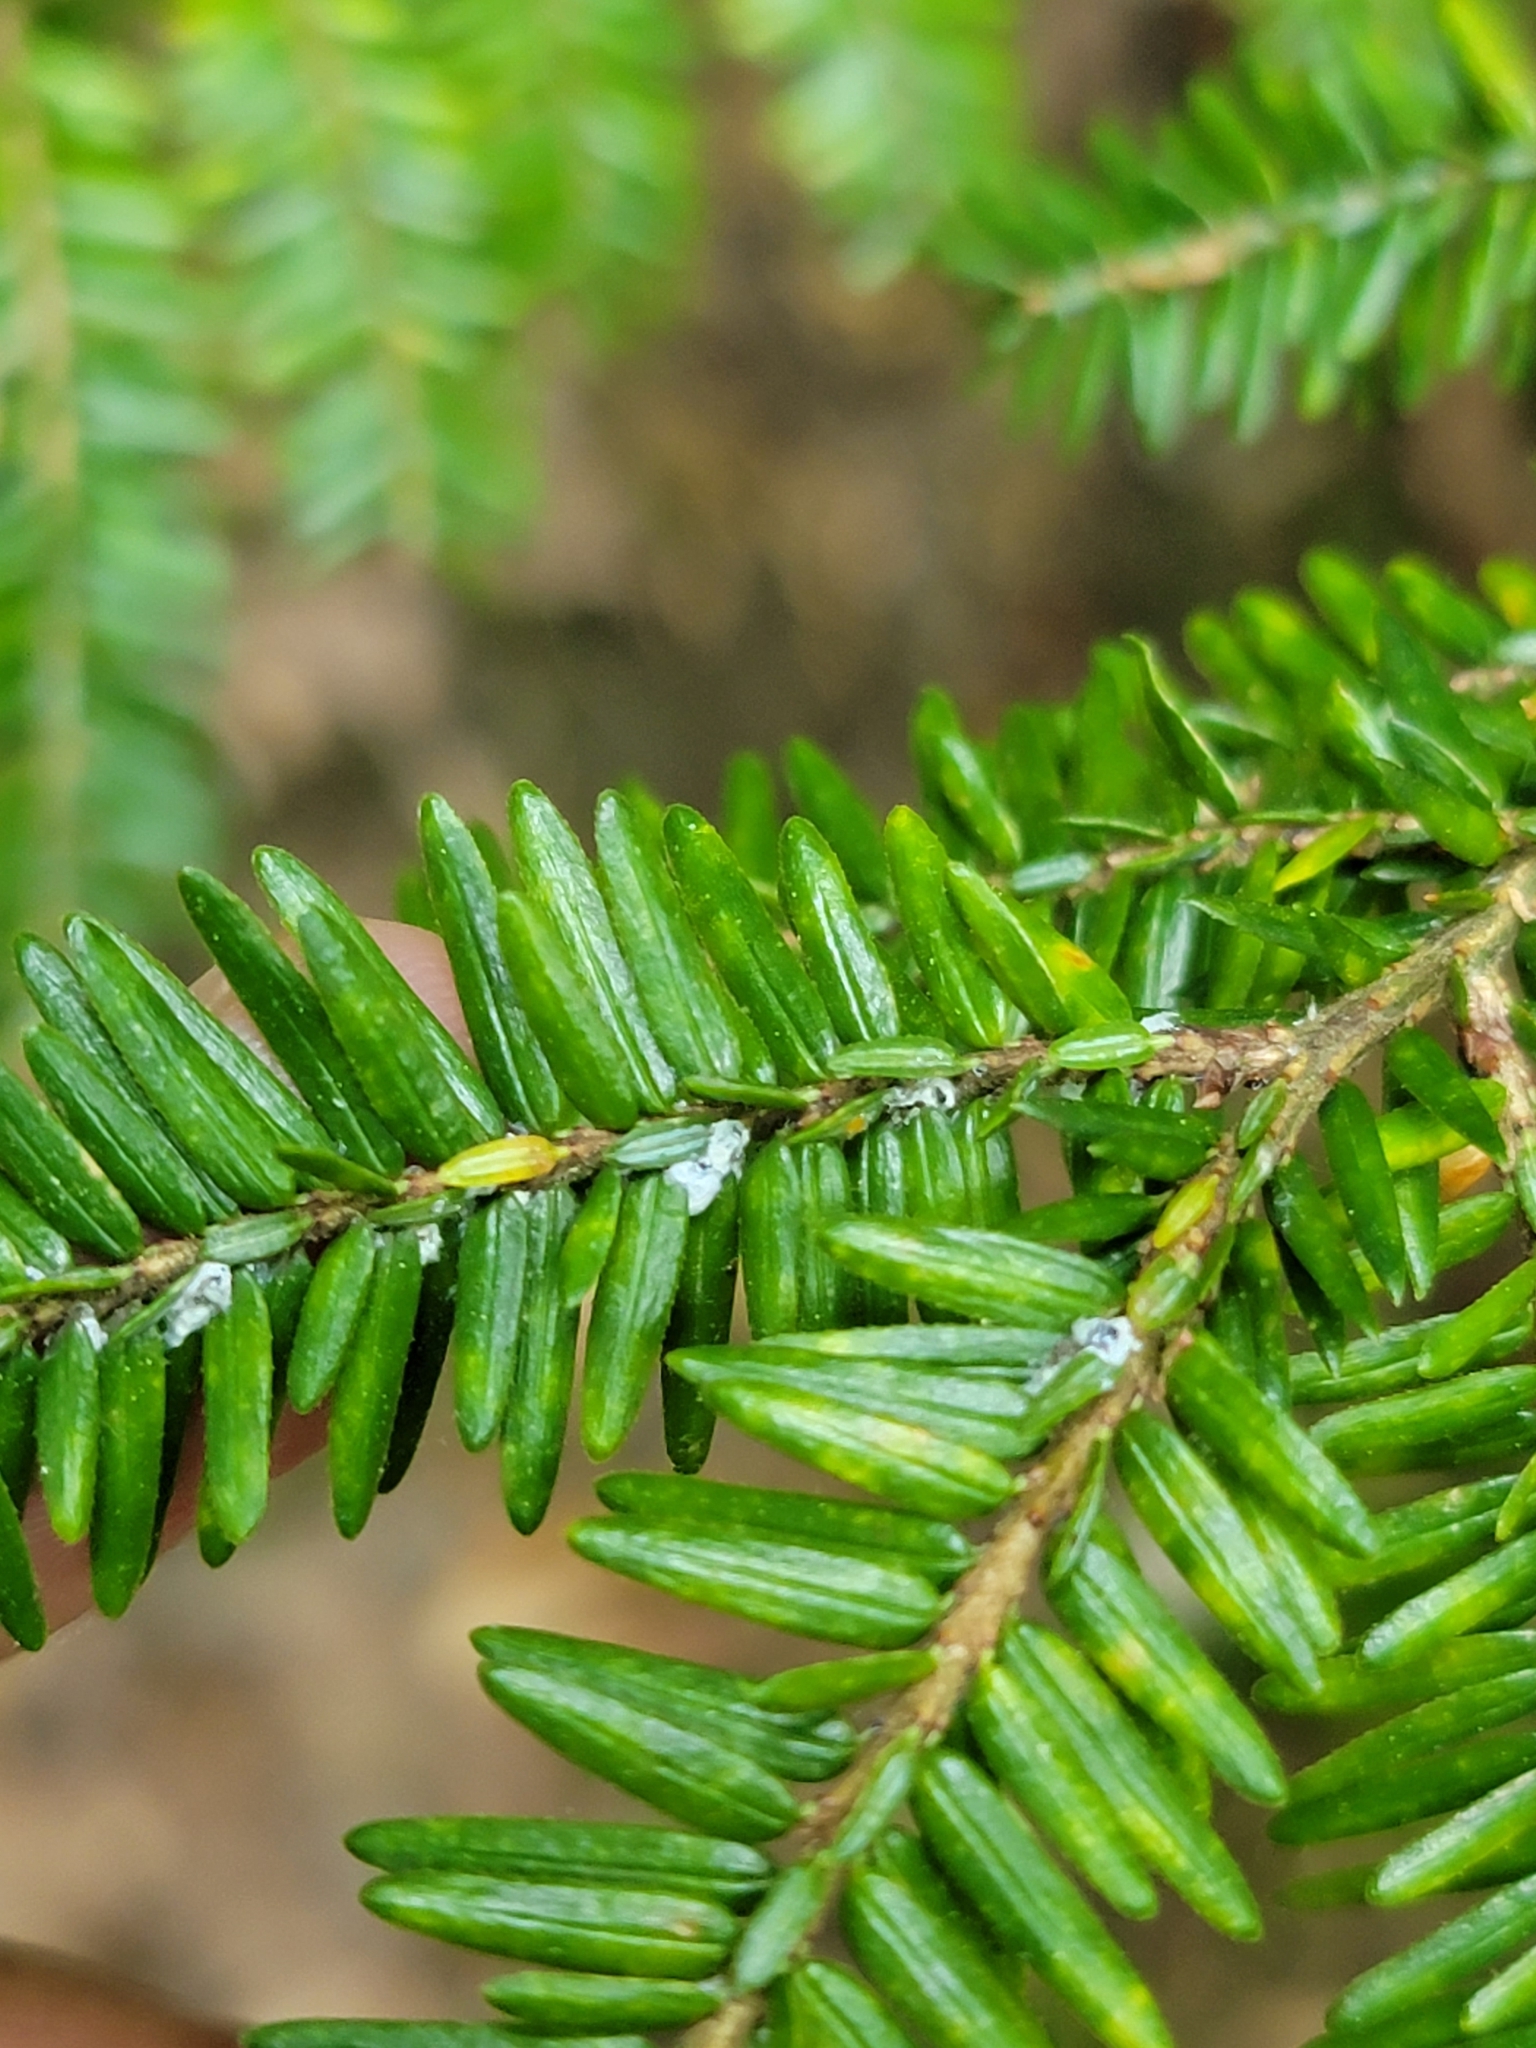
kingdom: Animalia
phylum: Arthropoda
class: Insecta
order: Hemiptera
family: Adelgidae
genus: Adelges
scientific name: Adelges tsugae
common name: Hemlock woolly adelgid
